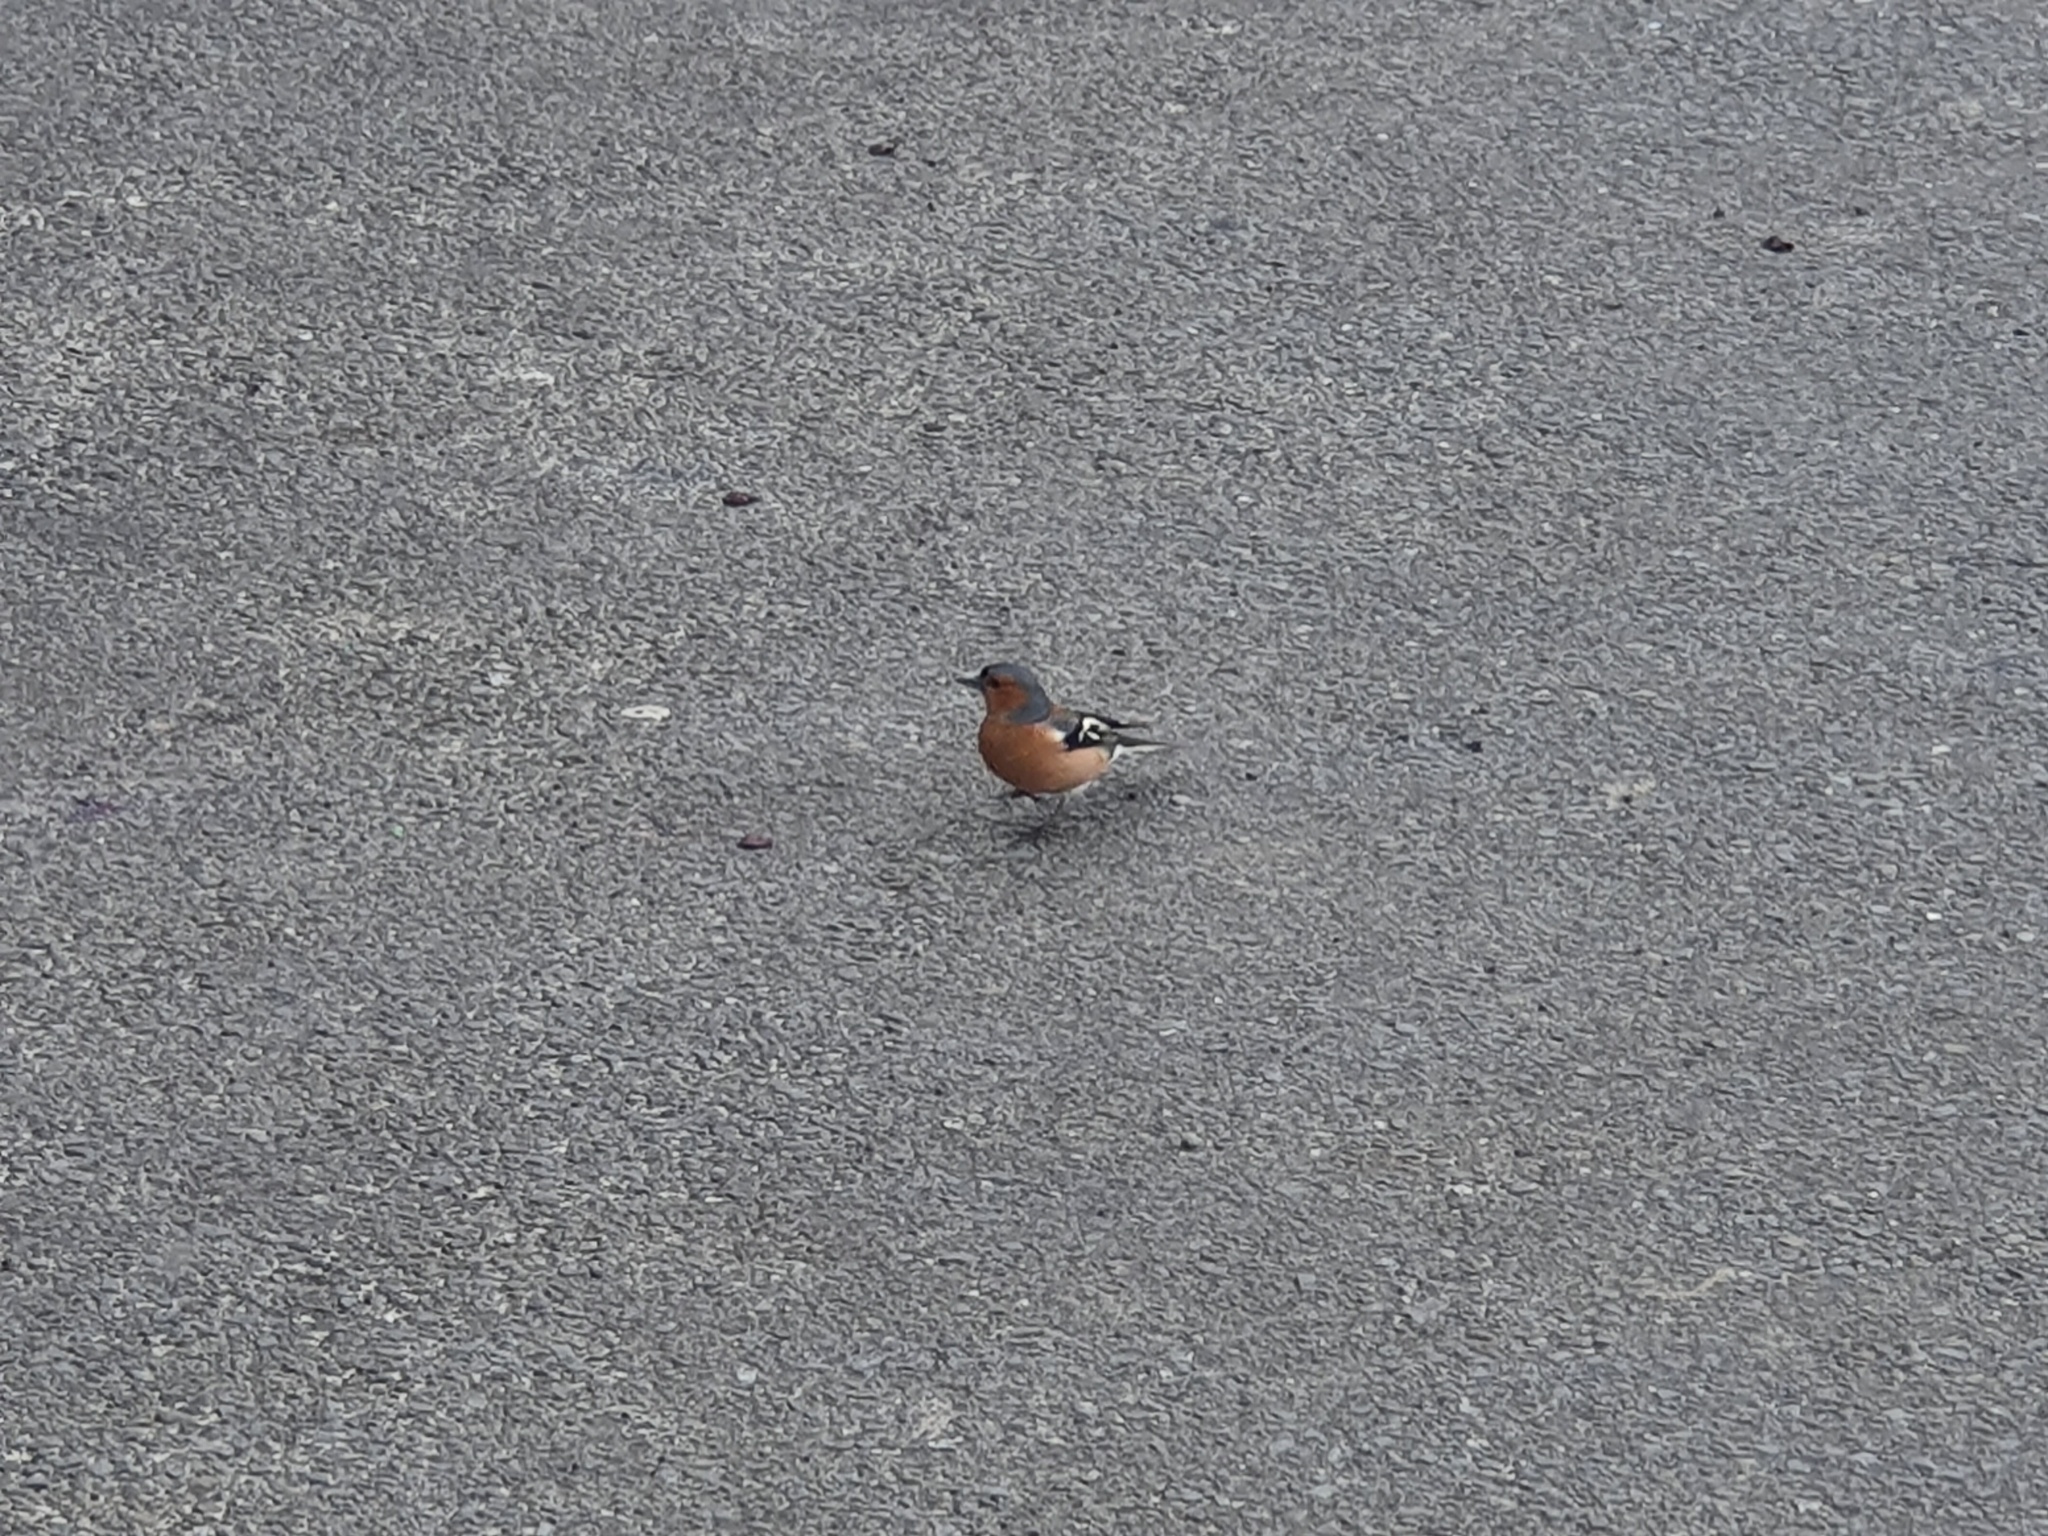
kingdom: Animalia
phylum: Chordata
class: Aves
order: Passeriformes
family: Fringillidae
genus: Fringilla
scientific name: Fringilla coelebs
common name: Common chaffinch
